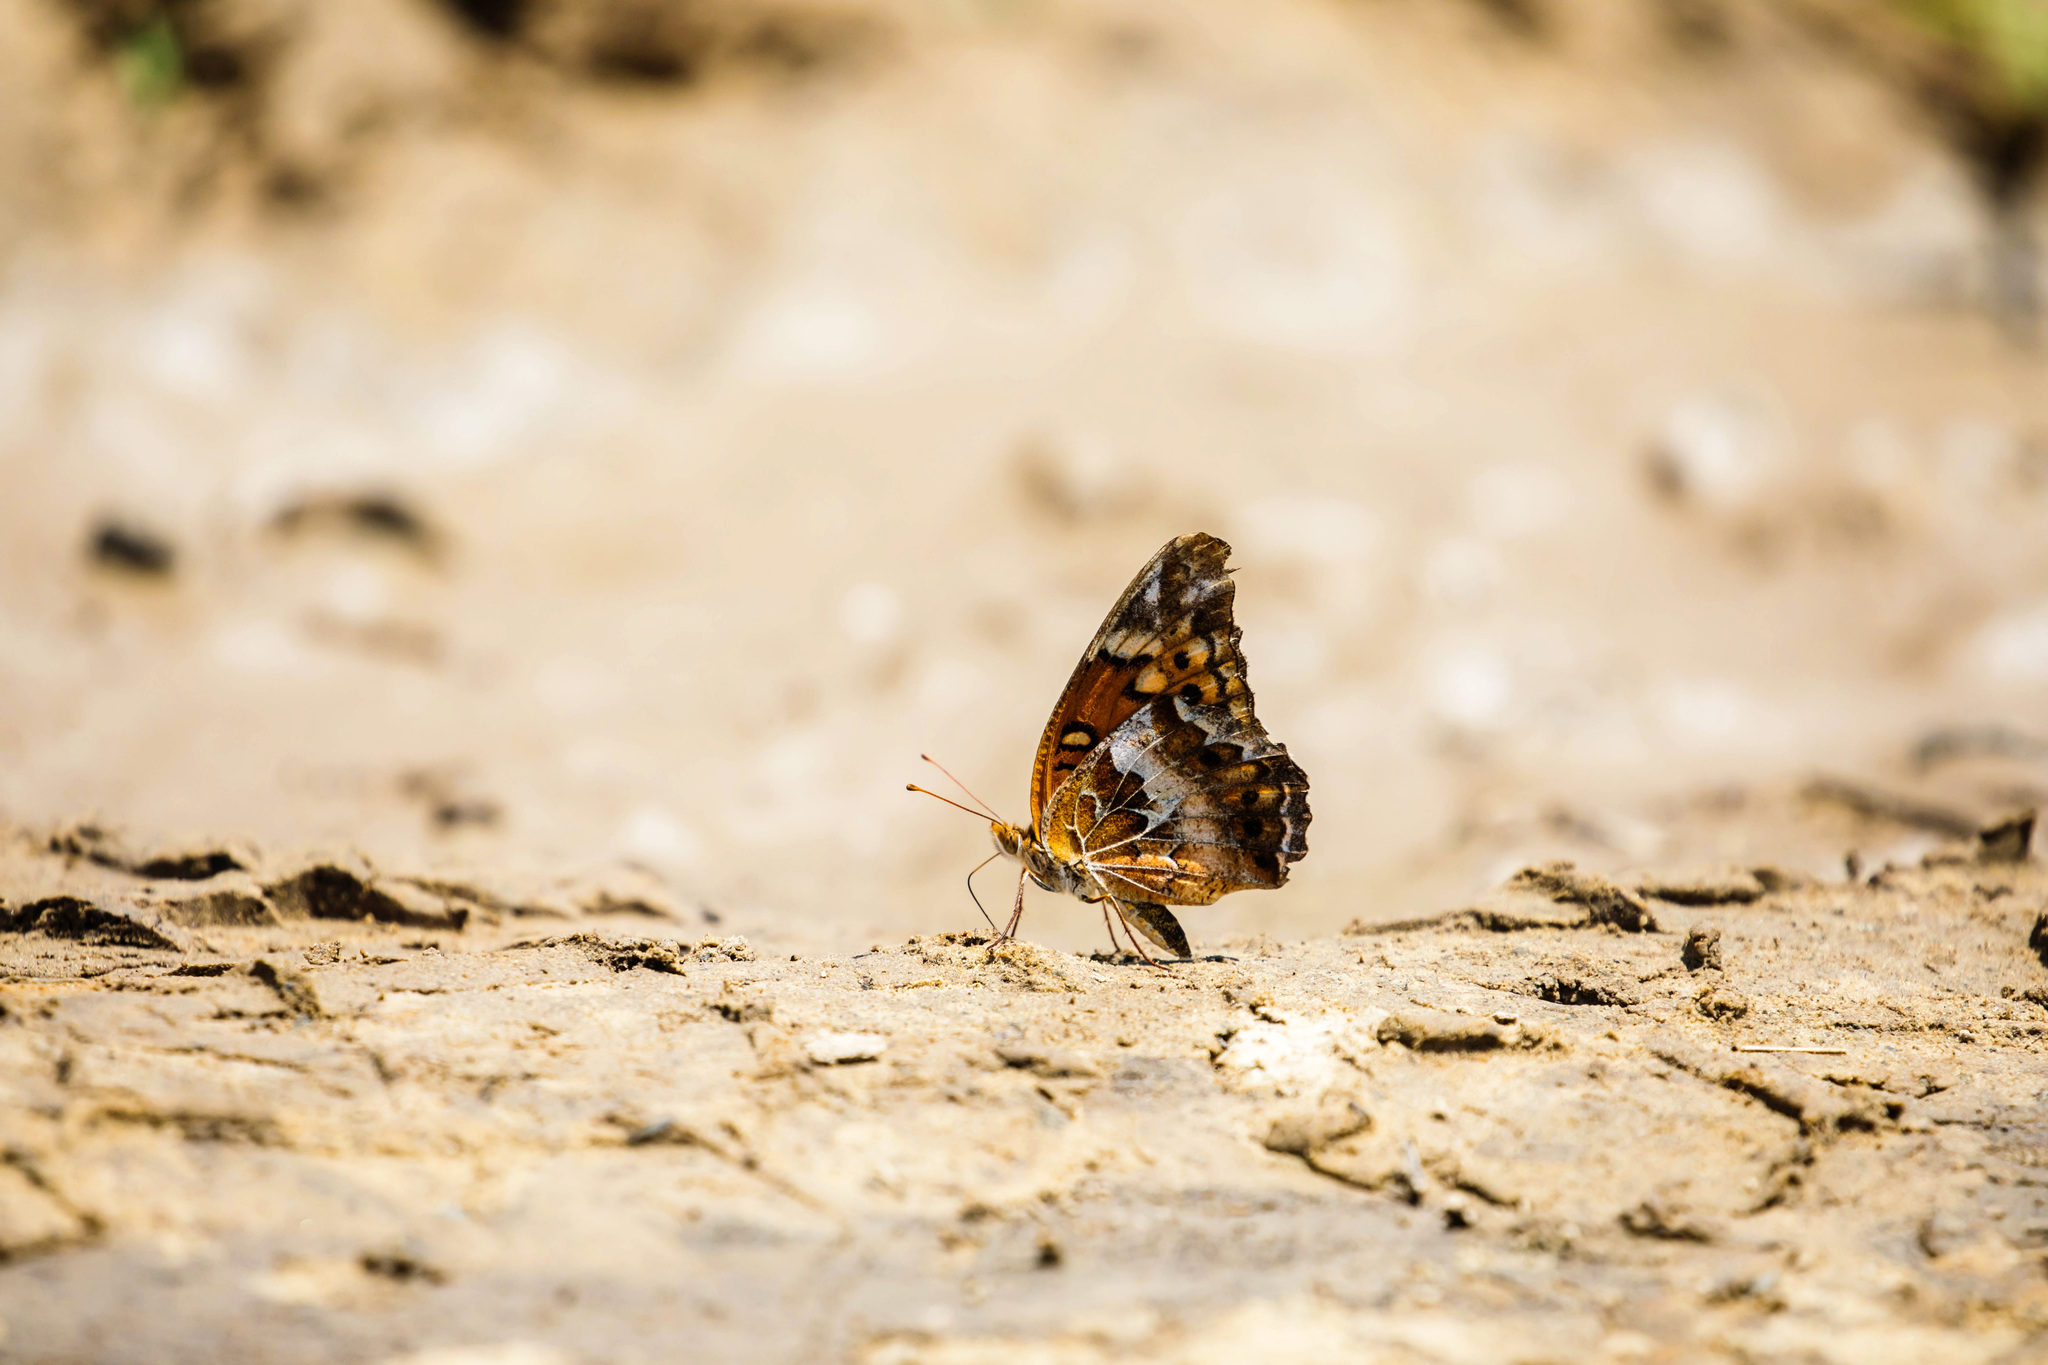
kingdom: Animalia
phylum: Arthropoda
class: Insecta
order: Lepidoptera
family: Nymphalidae
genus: Euptoieta
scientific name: Euptoieta claudia
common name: Variegated fritillary
